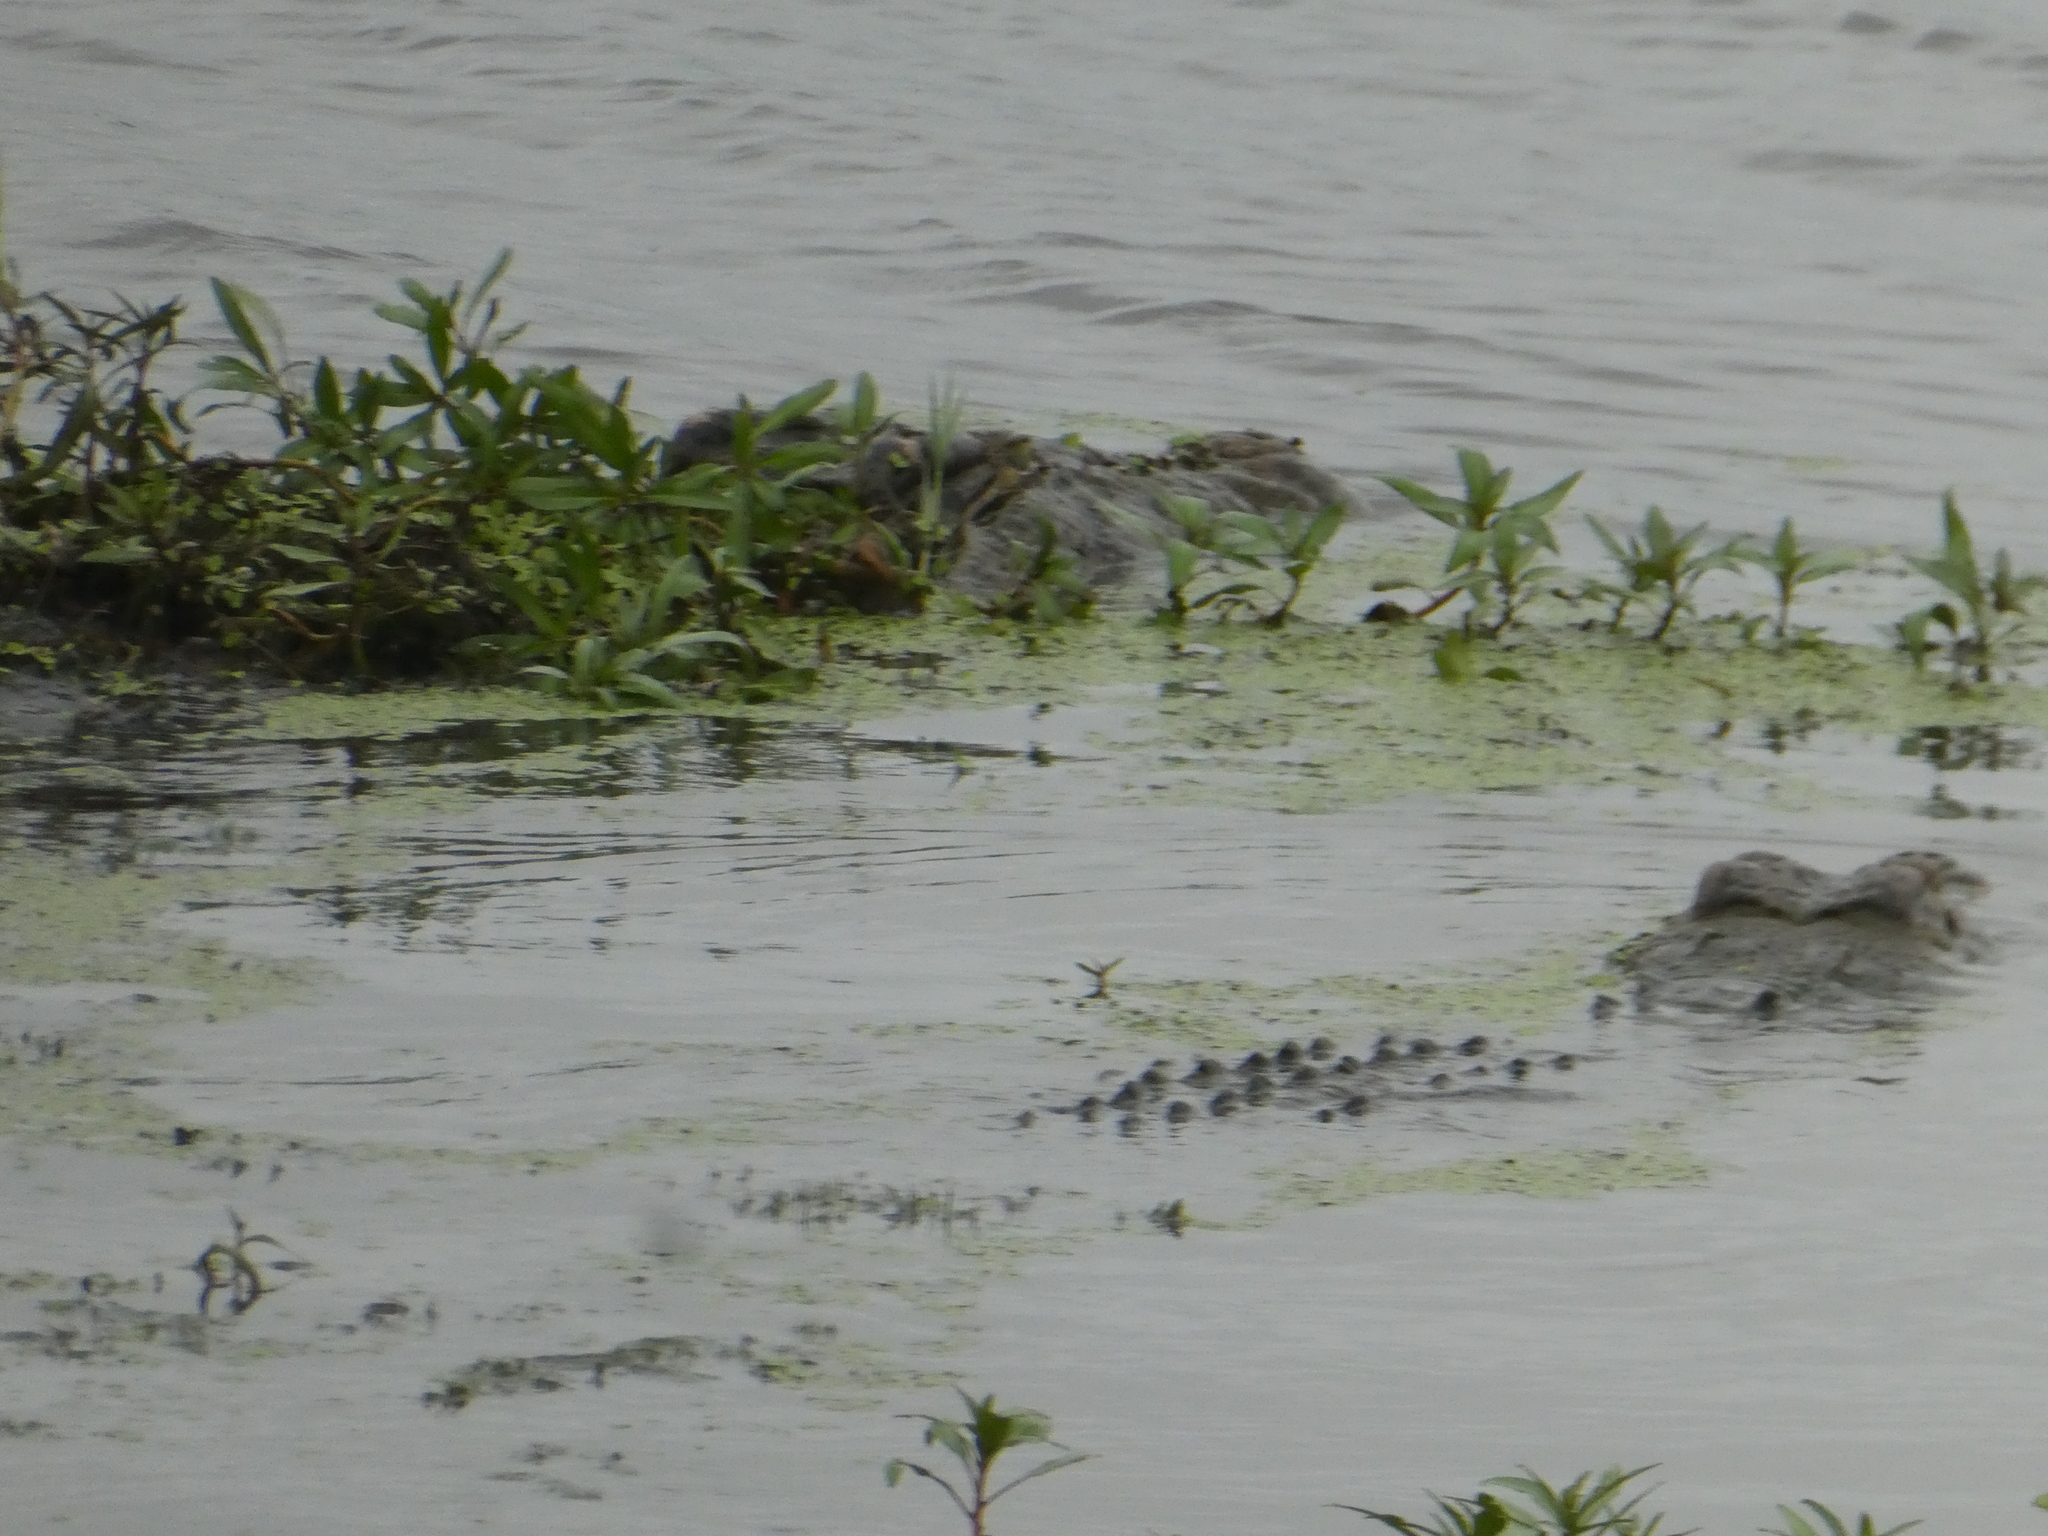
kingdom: Animalia
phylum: Chordata
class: Crocodylia
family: Crocodylidae
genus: Crocodylus
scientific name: Crocodylus niloticus
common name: Nile crocodile
